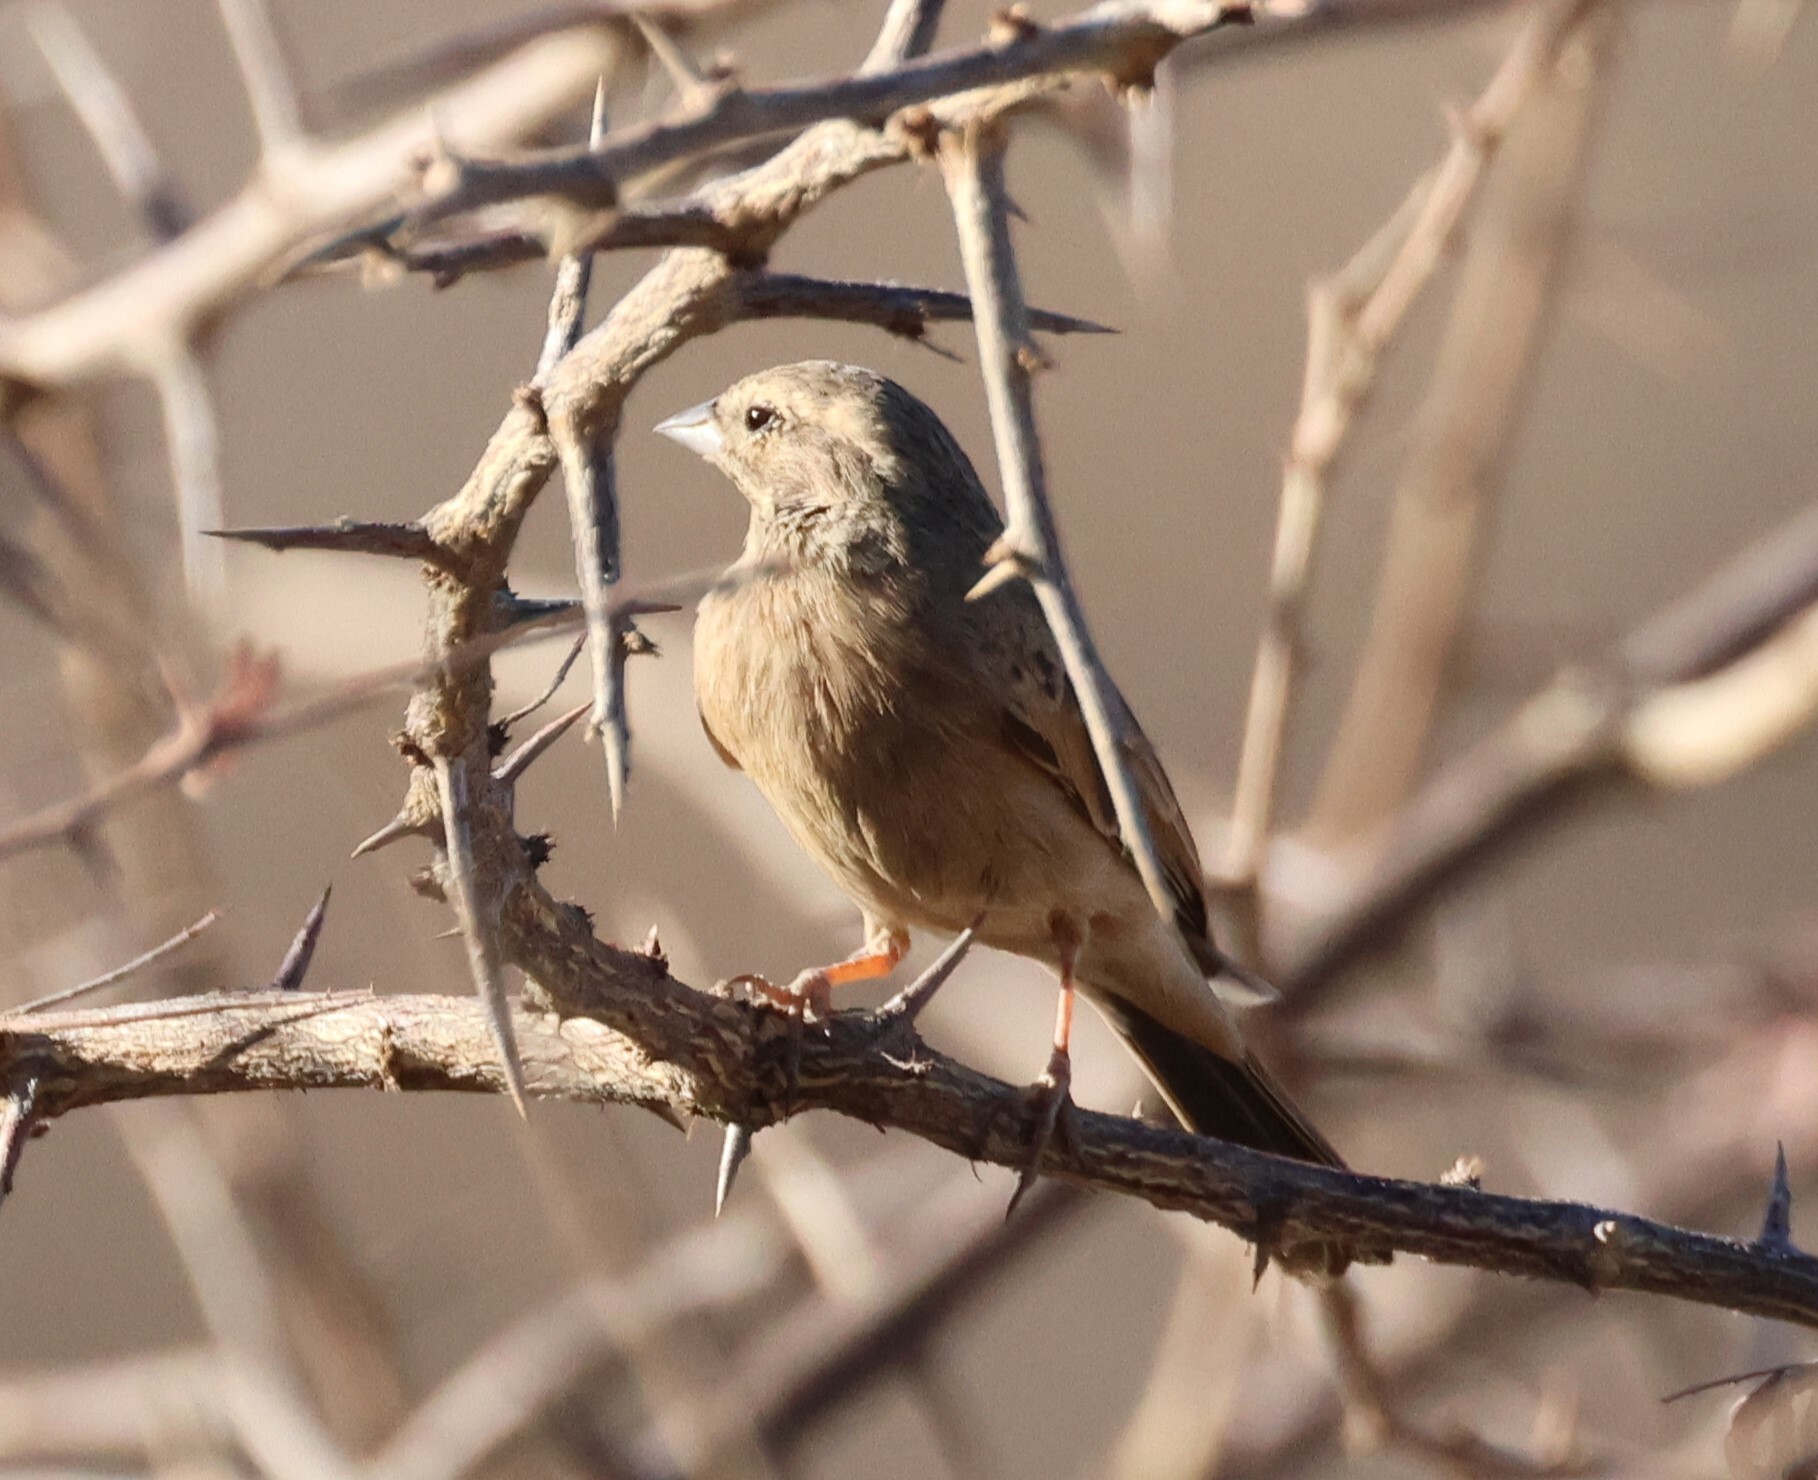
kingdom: Animalia
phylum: Chordata
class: Aves
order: Passeriformes
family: Emberizidae
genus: Emberiza
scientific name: Emberiza impetuani
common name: Lark-like bunting
